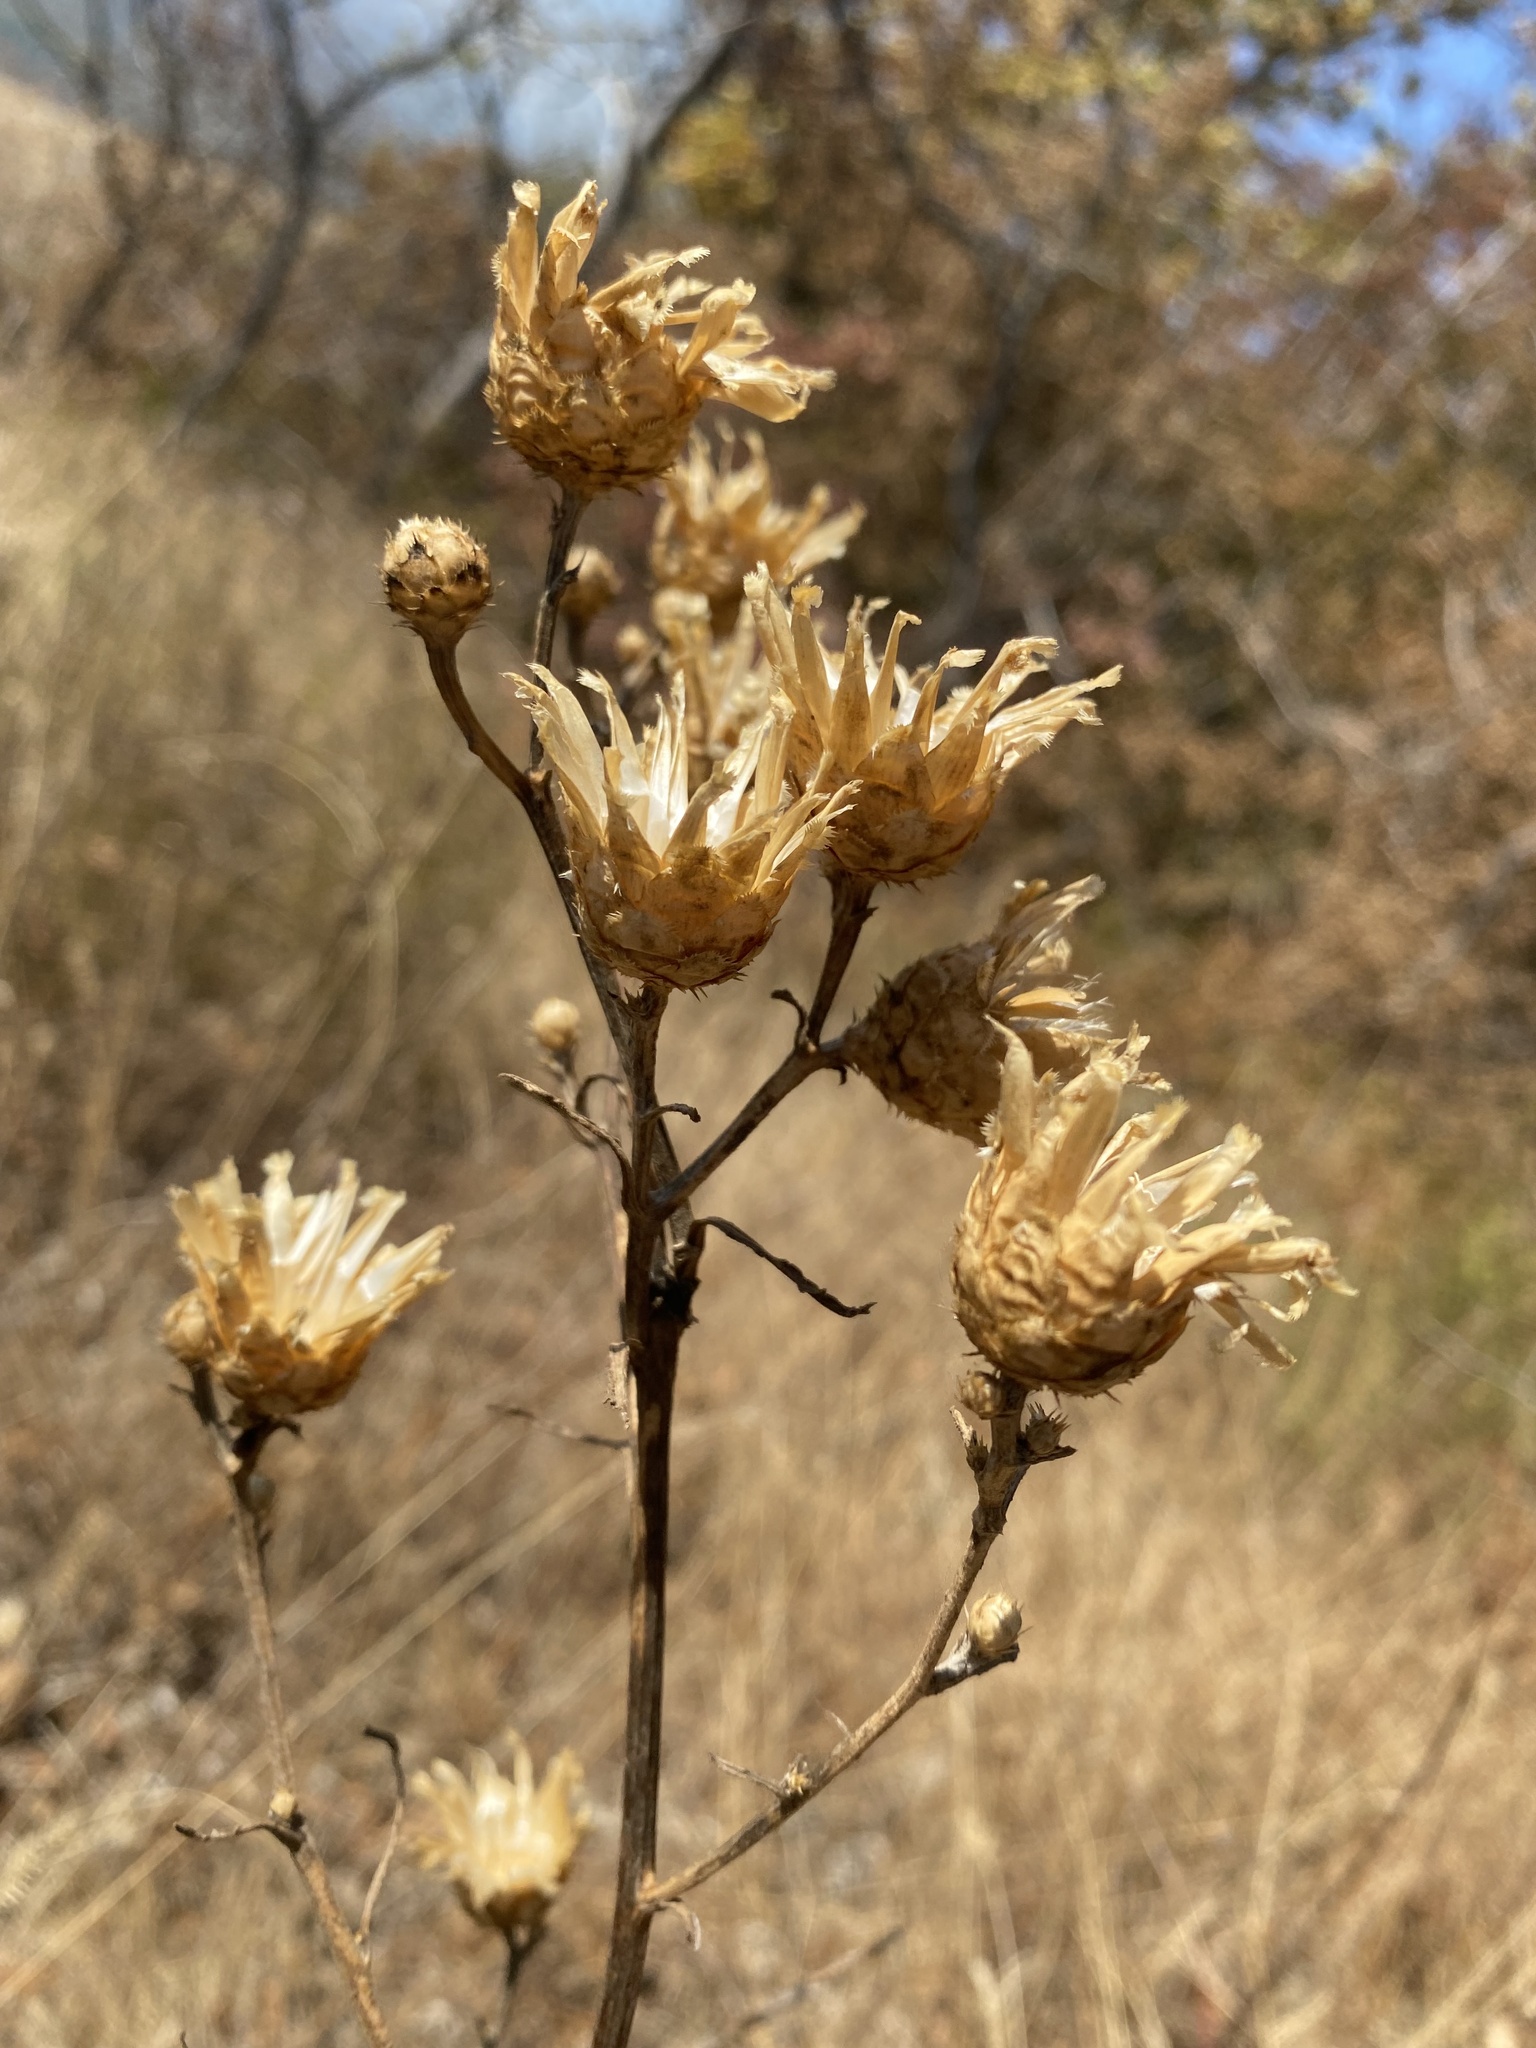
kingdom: Plantae
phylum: Tracheophyta
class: Magnoliopsida
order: Asterales
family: Asteraceae
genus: Centaurea
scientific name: Centaurea salonitana
